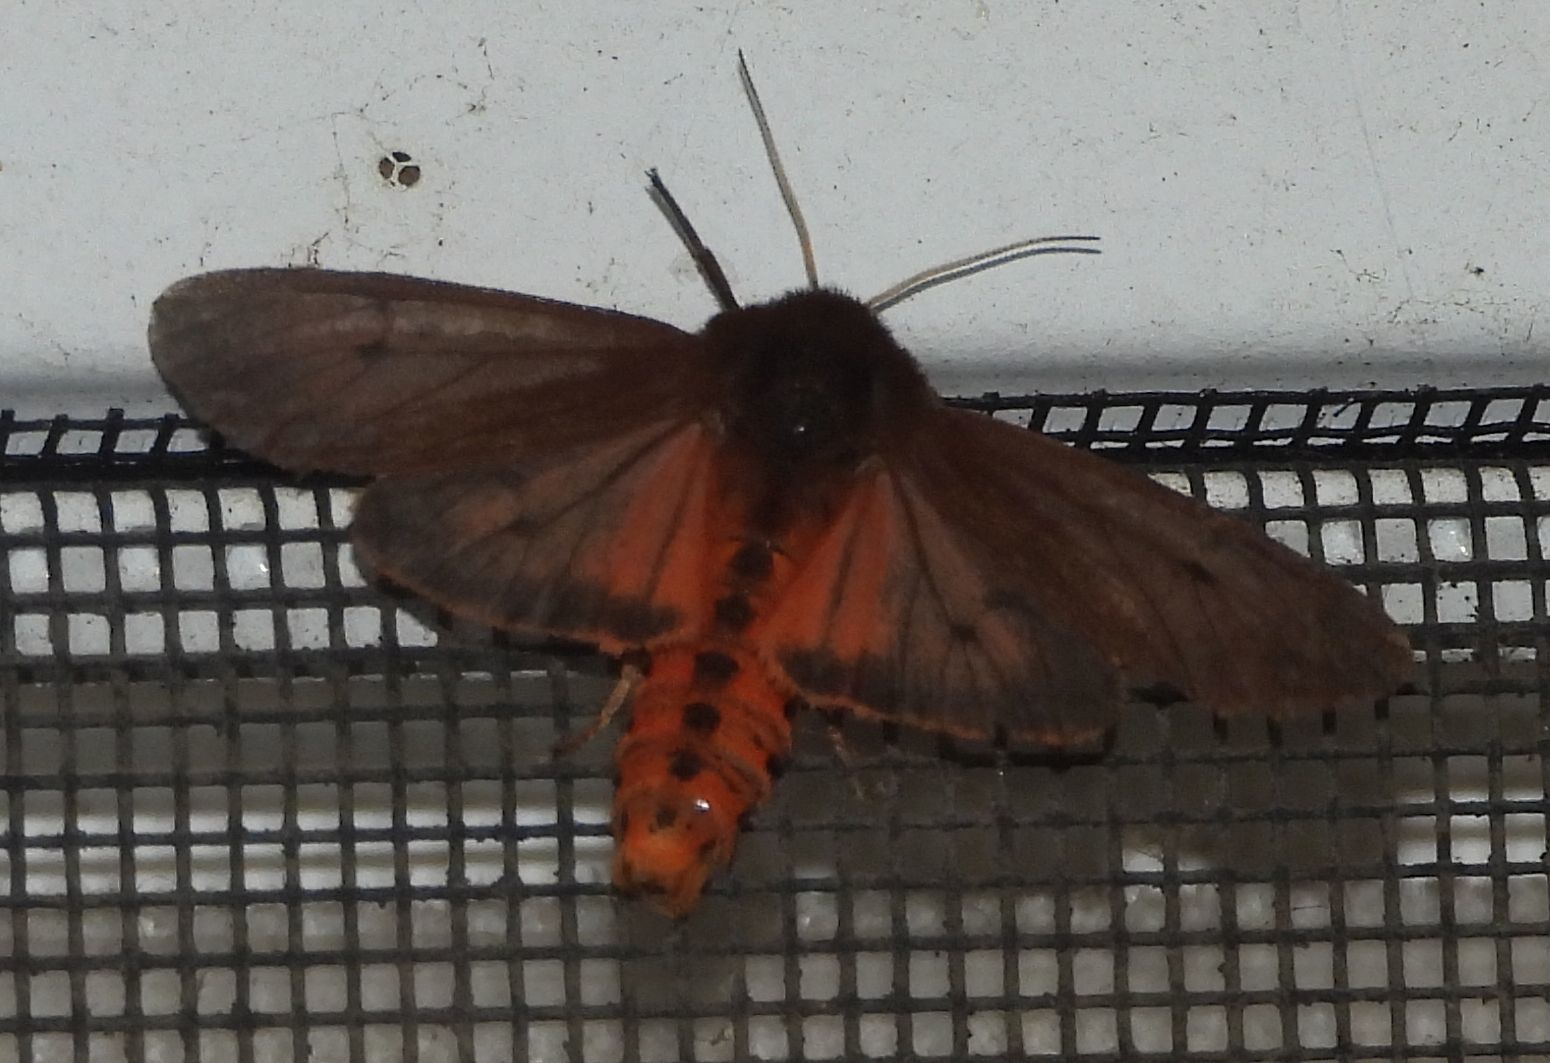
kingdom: Animalia
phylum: Arthropoda
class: Insecta
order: Lepidoptera
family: Erebidae
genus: Phragmatobia
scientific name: Phragmatobia fuliginosa
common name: Ruby tiger
